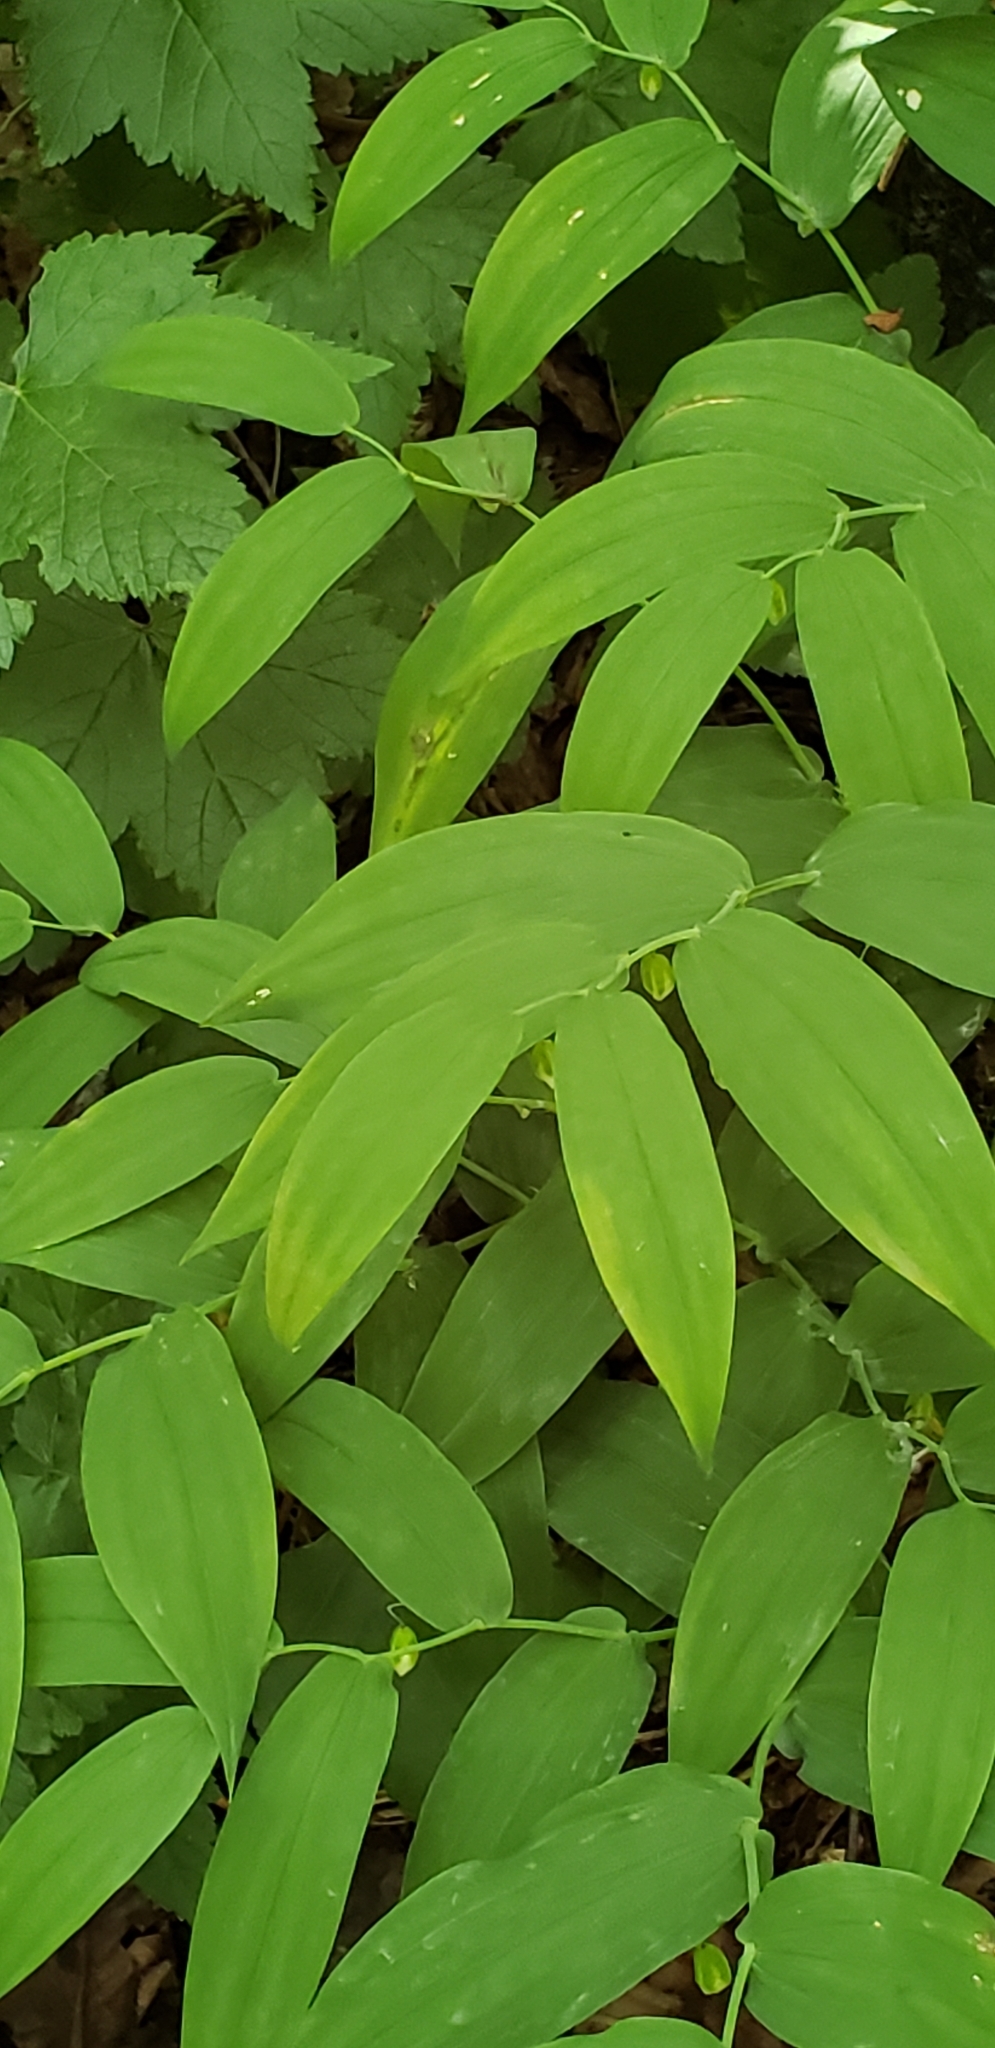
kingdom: Plantae
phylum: Tracheophyta
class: Liliopsida
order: Liliales
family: Liliaceae
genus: Streptopus
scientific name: Streptopus amplexifolius
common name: Clasp twisted stalk
